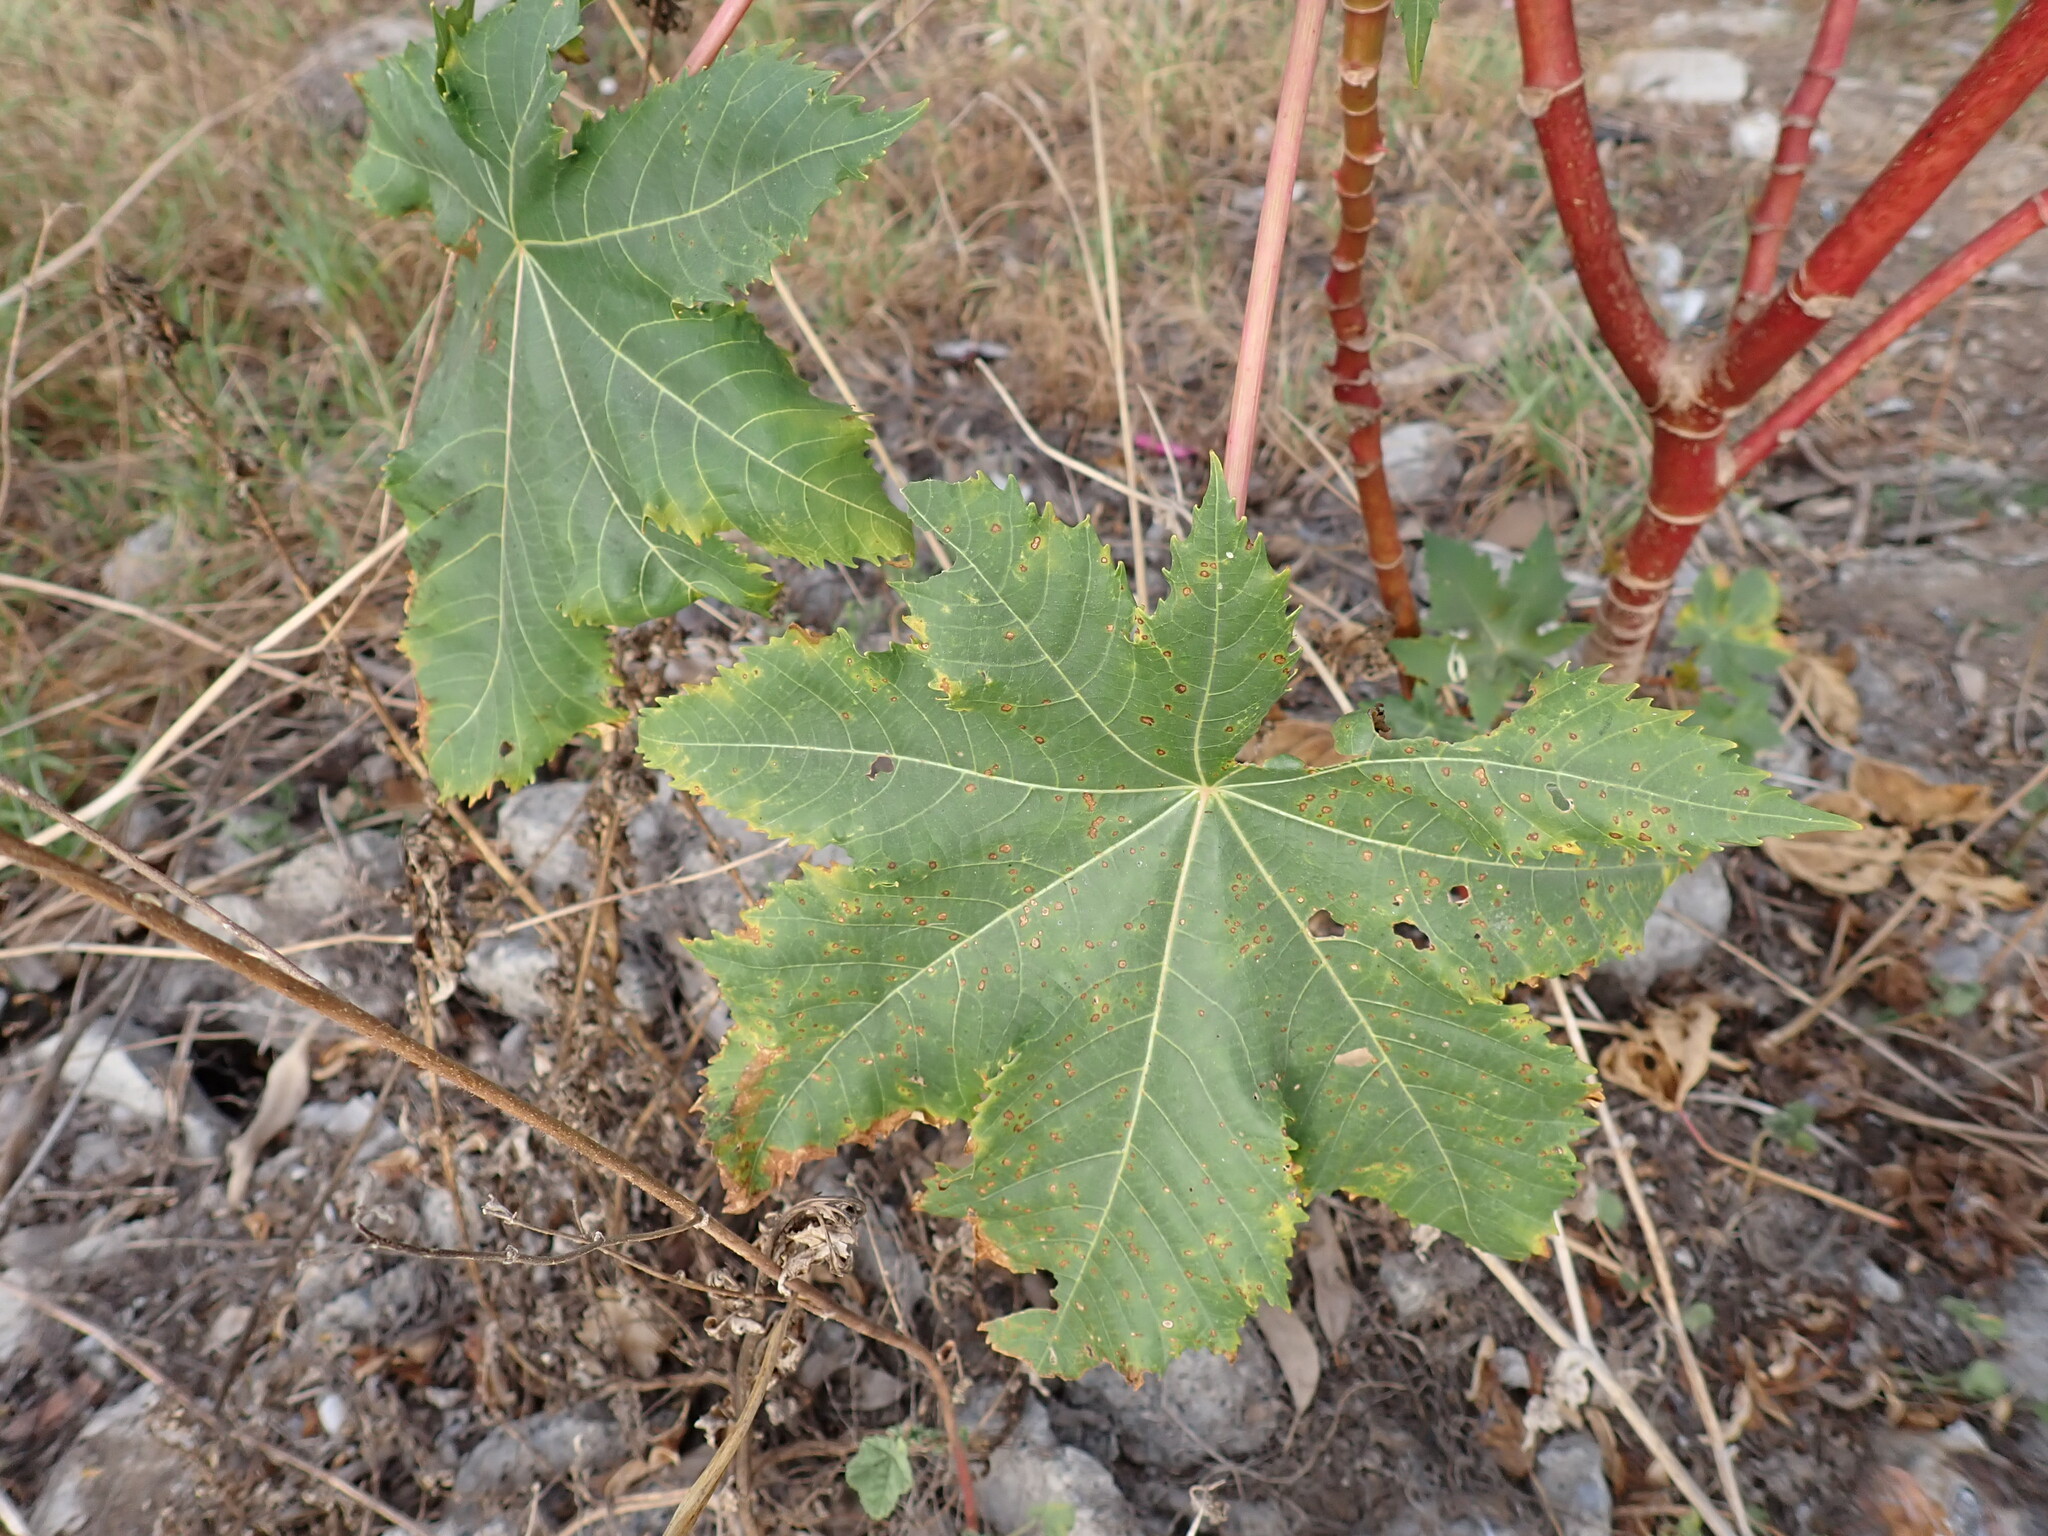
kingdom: Plantae
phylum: Tracheophyta
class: Magnoliopsida
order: Malpighiales
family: Euphorbiaceae
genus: Ricinus
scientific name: Ricinus communis
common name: Castor-oil-plant
